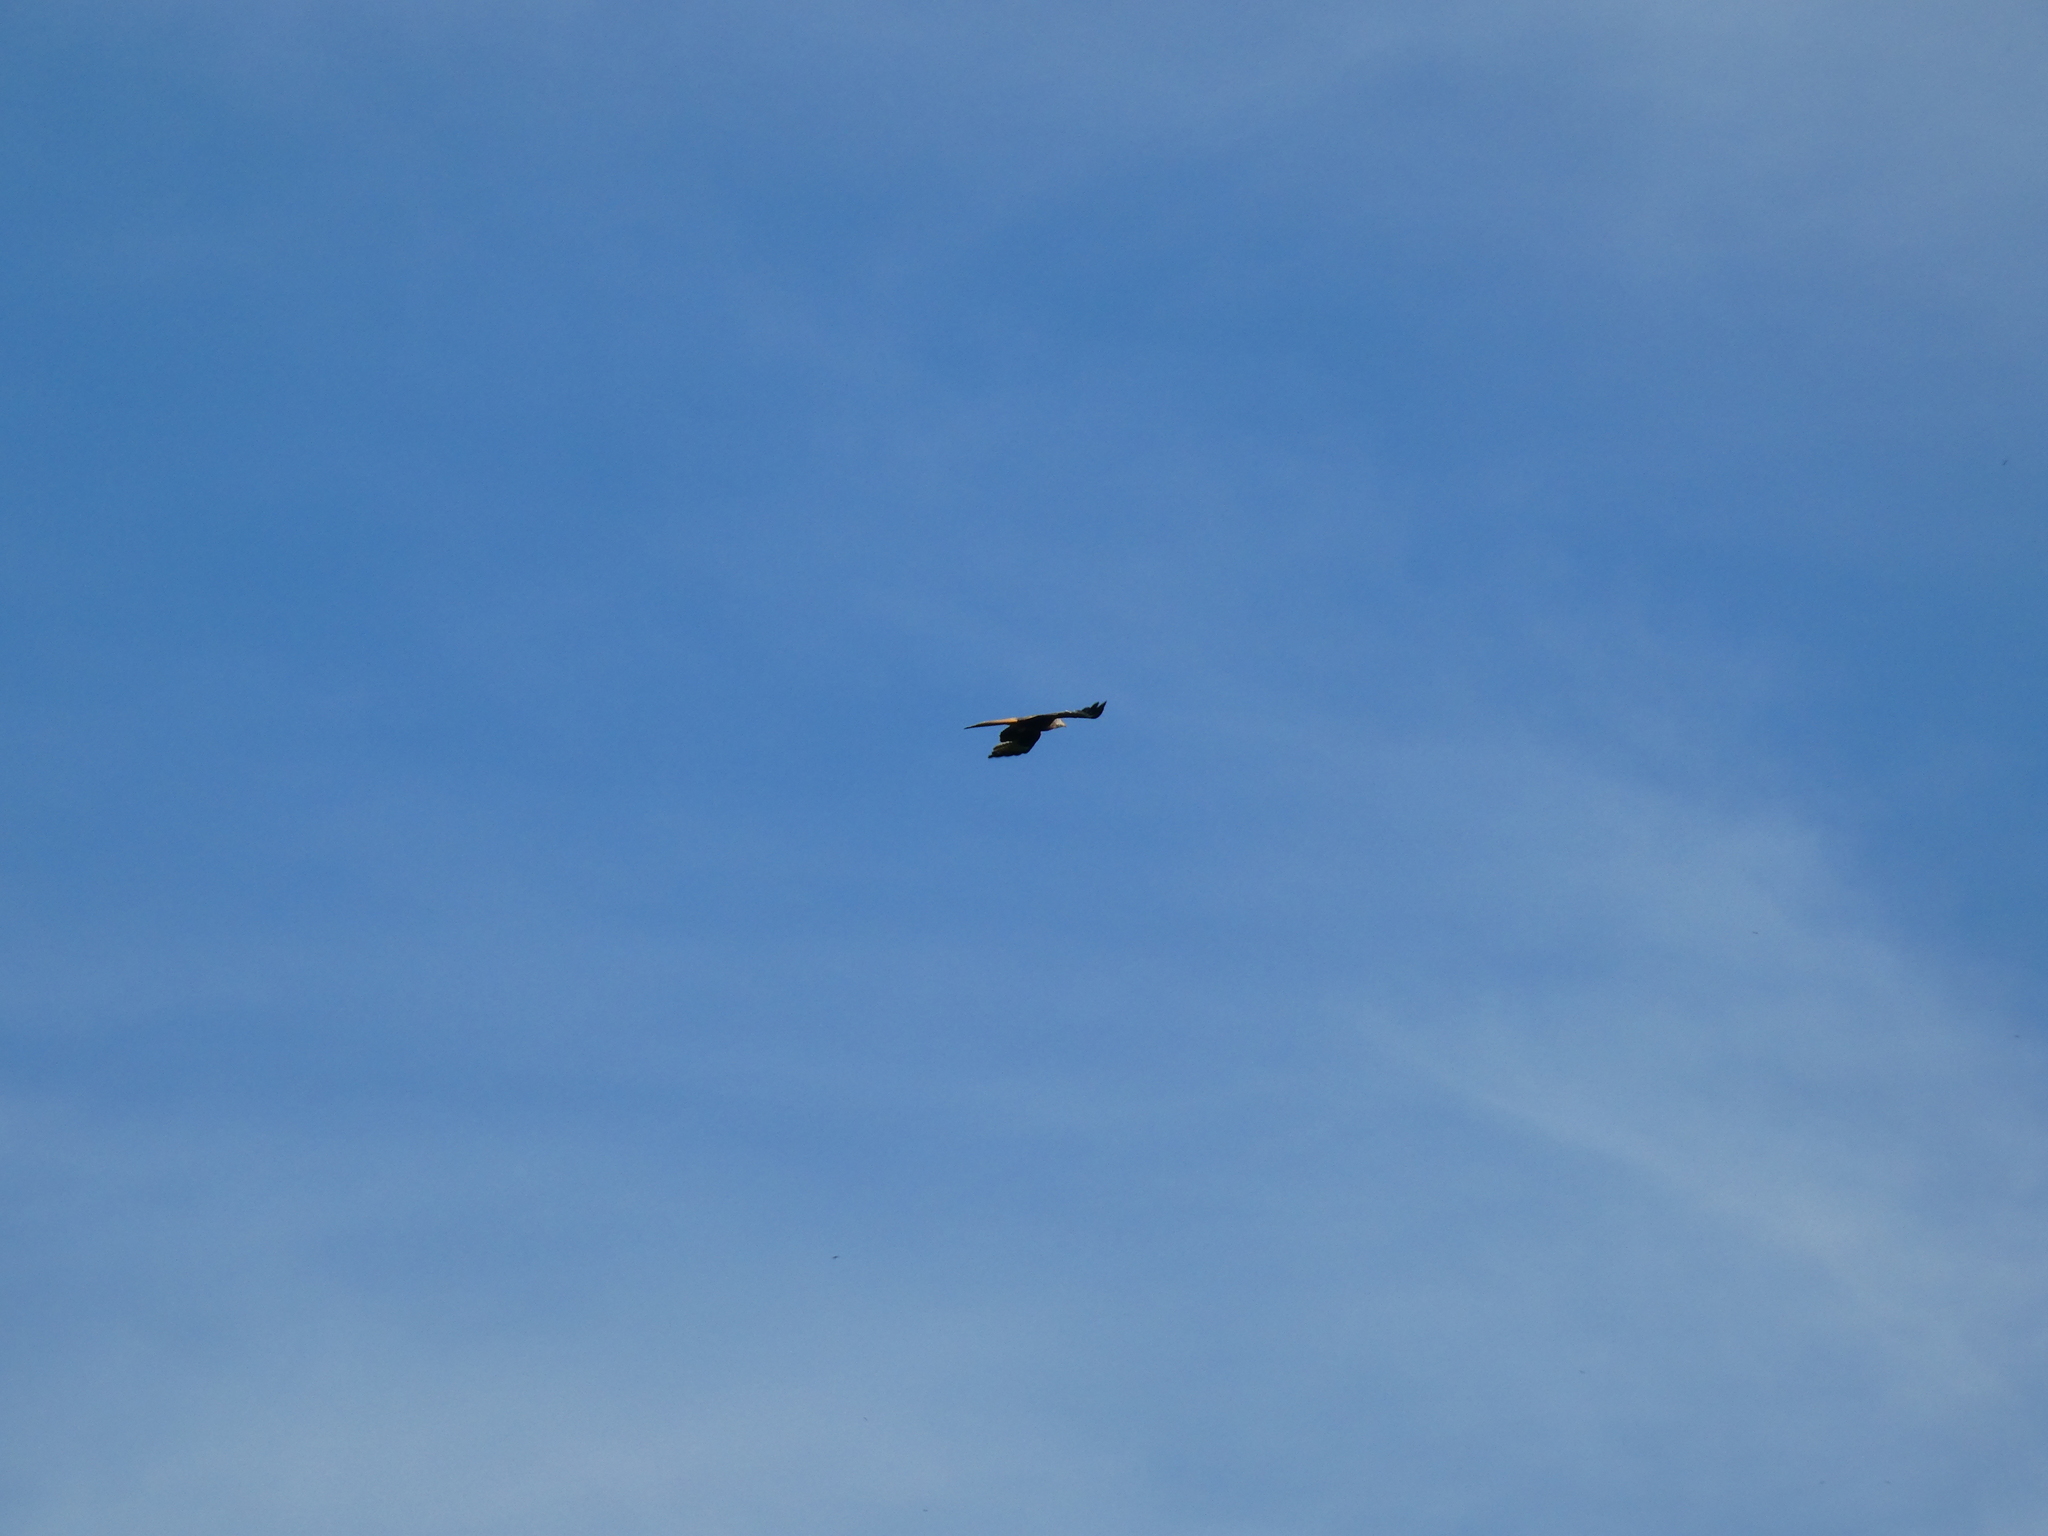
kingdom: Animalia
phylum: Chordata
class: Aves
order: Accipitriformes
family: Accipitridae
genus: Milvus
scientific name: Milvus milvus
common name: Red kite
